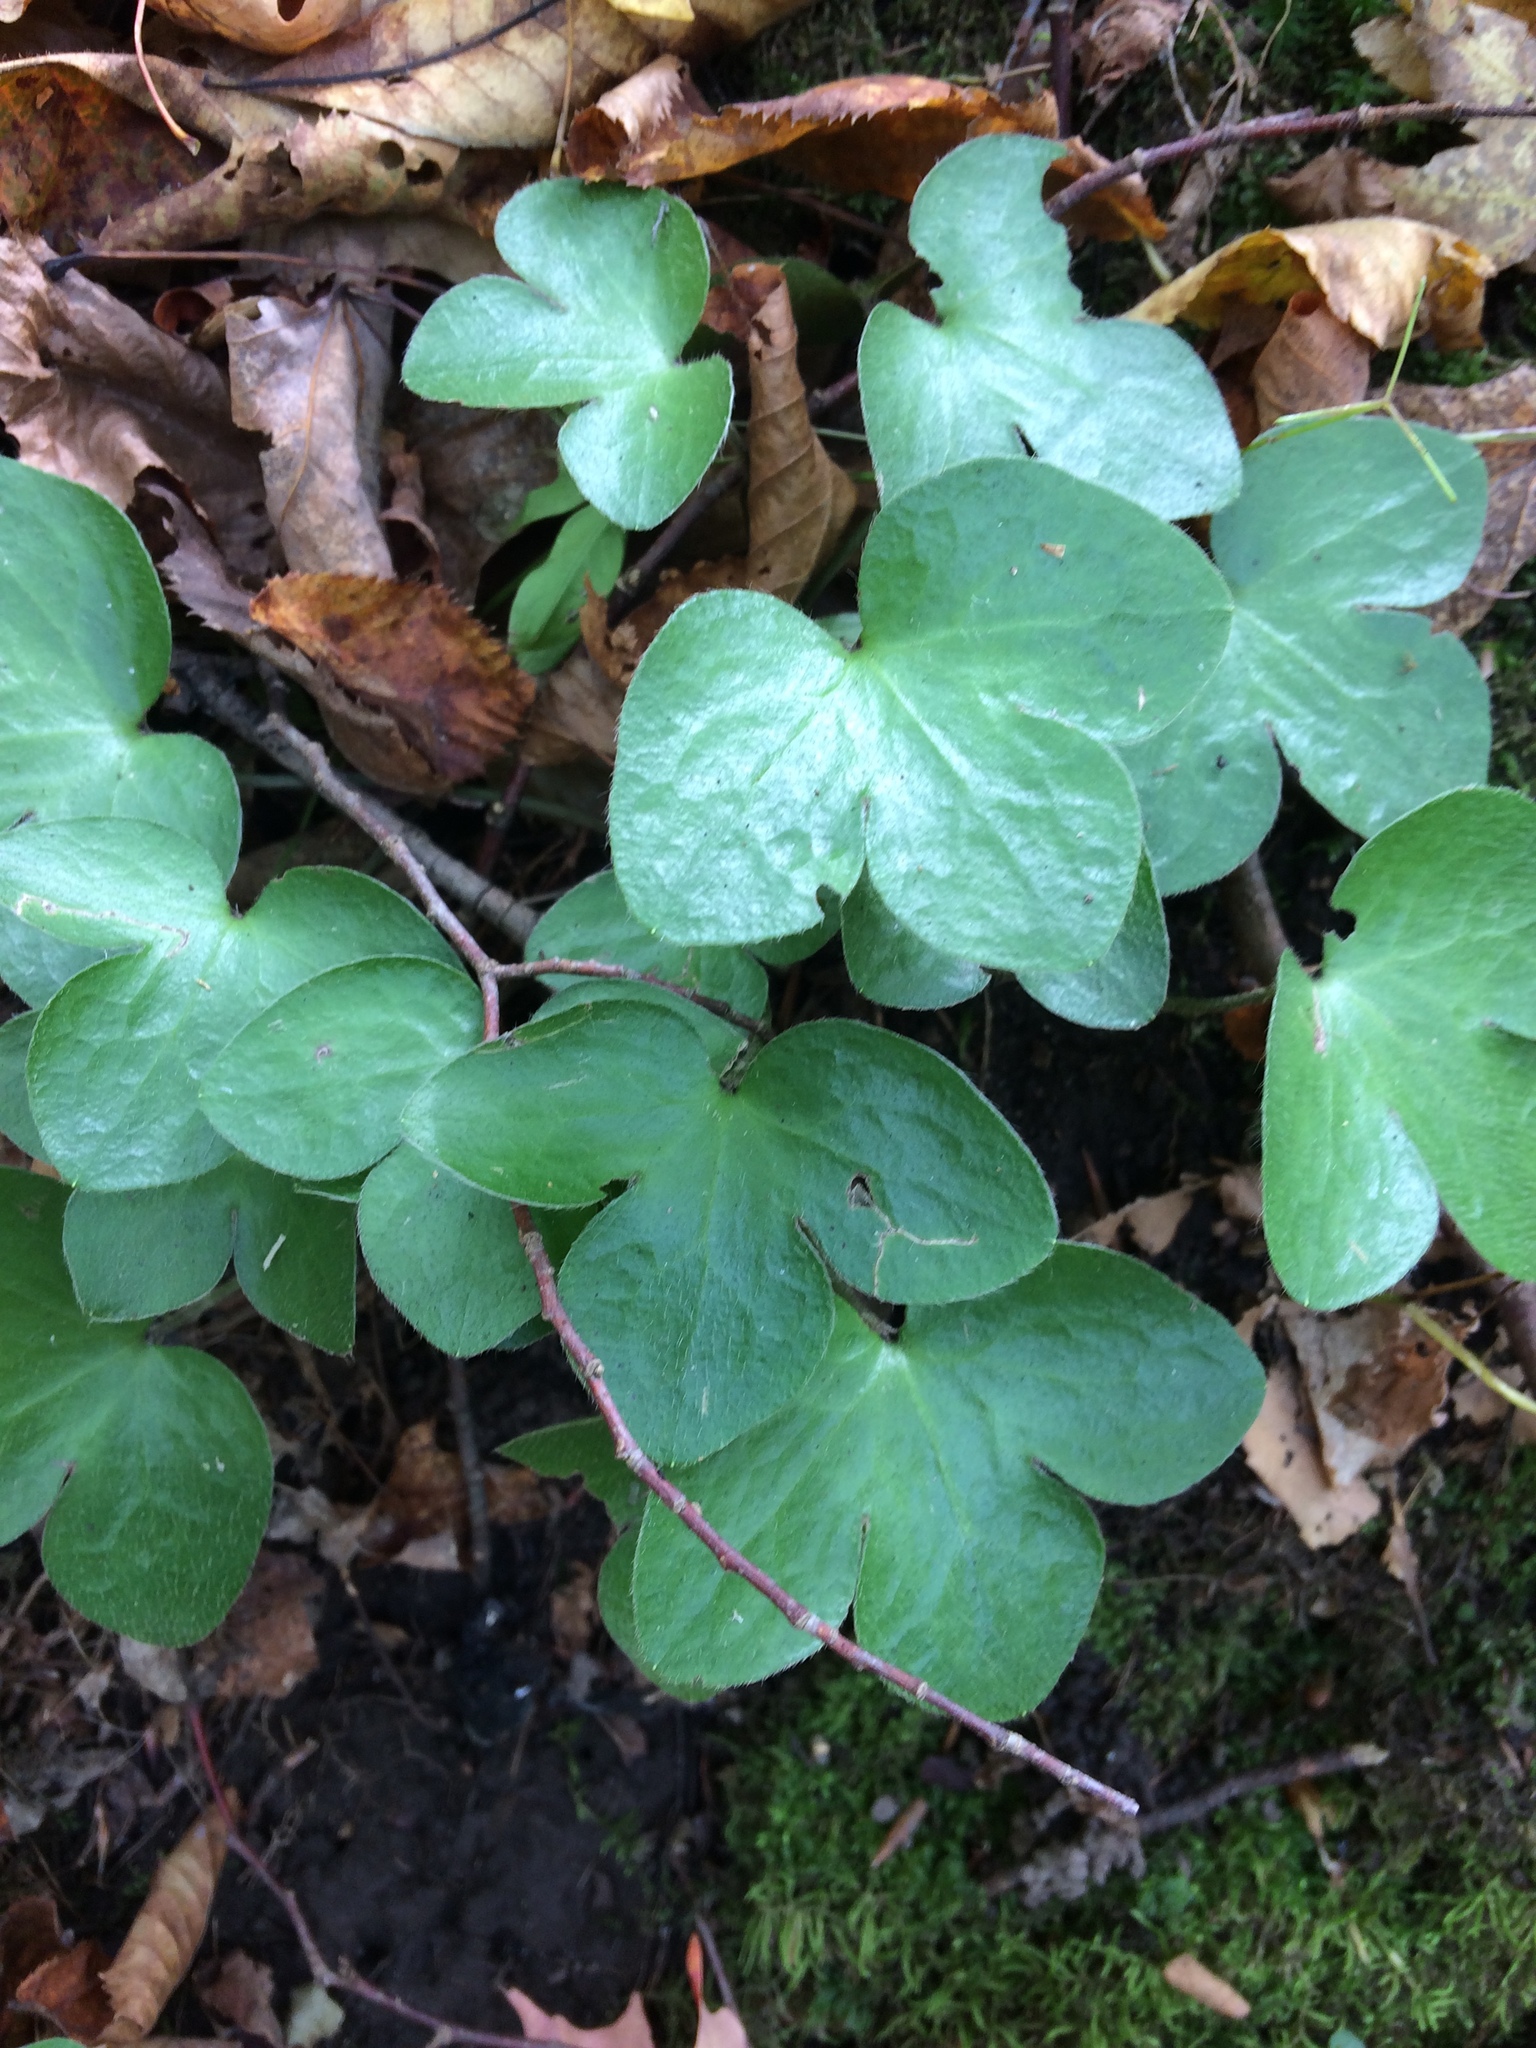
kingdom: Plantae
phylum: Tracheophyta
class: Magnoliopsida
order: Ranunculales
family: Ranunculaceae
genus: Hepatica
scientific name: Hepatica americana
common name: American hepatica
